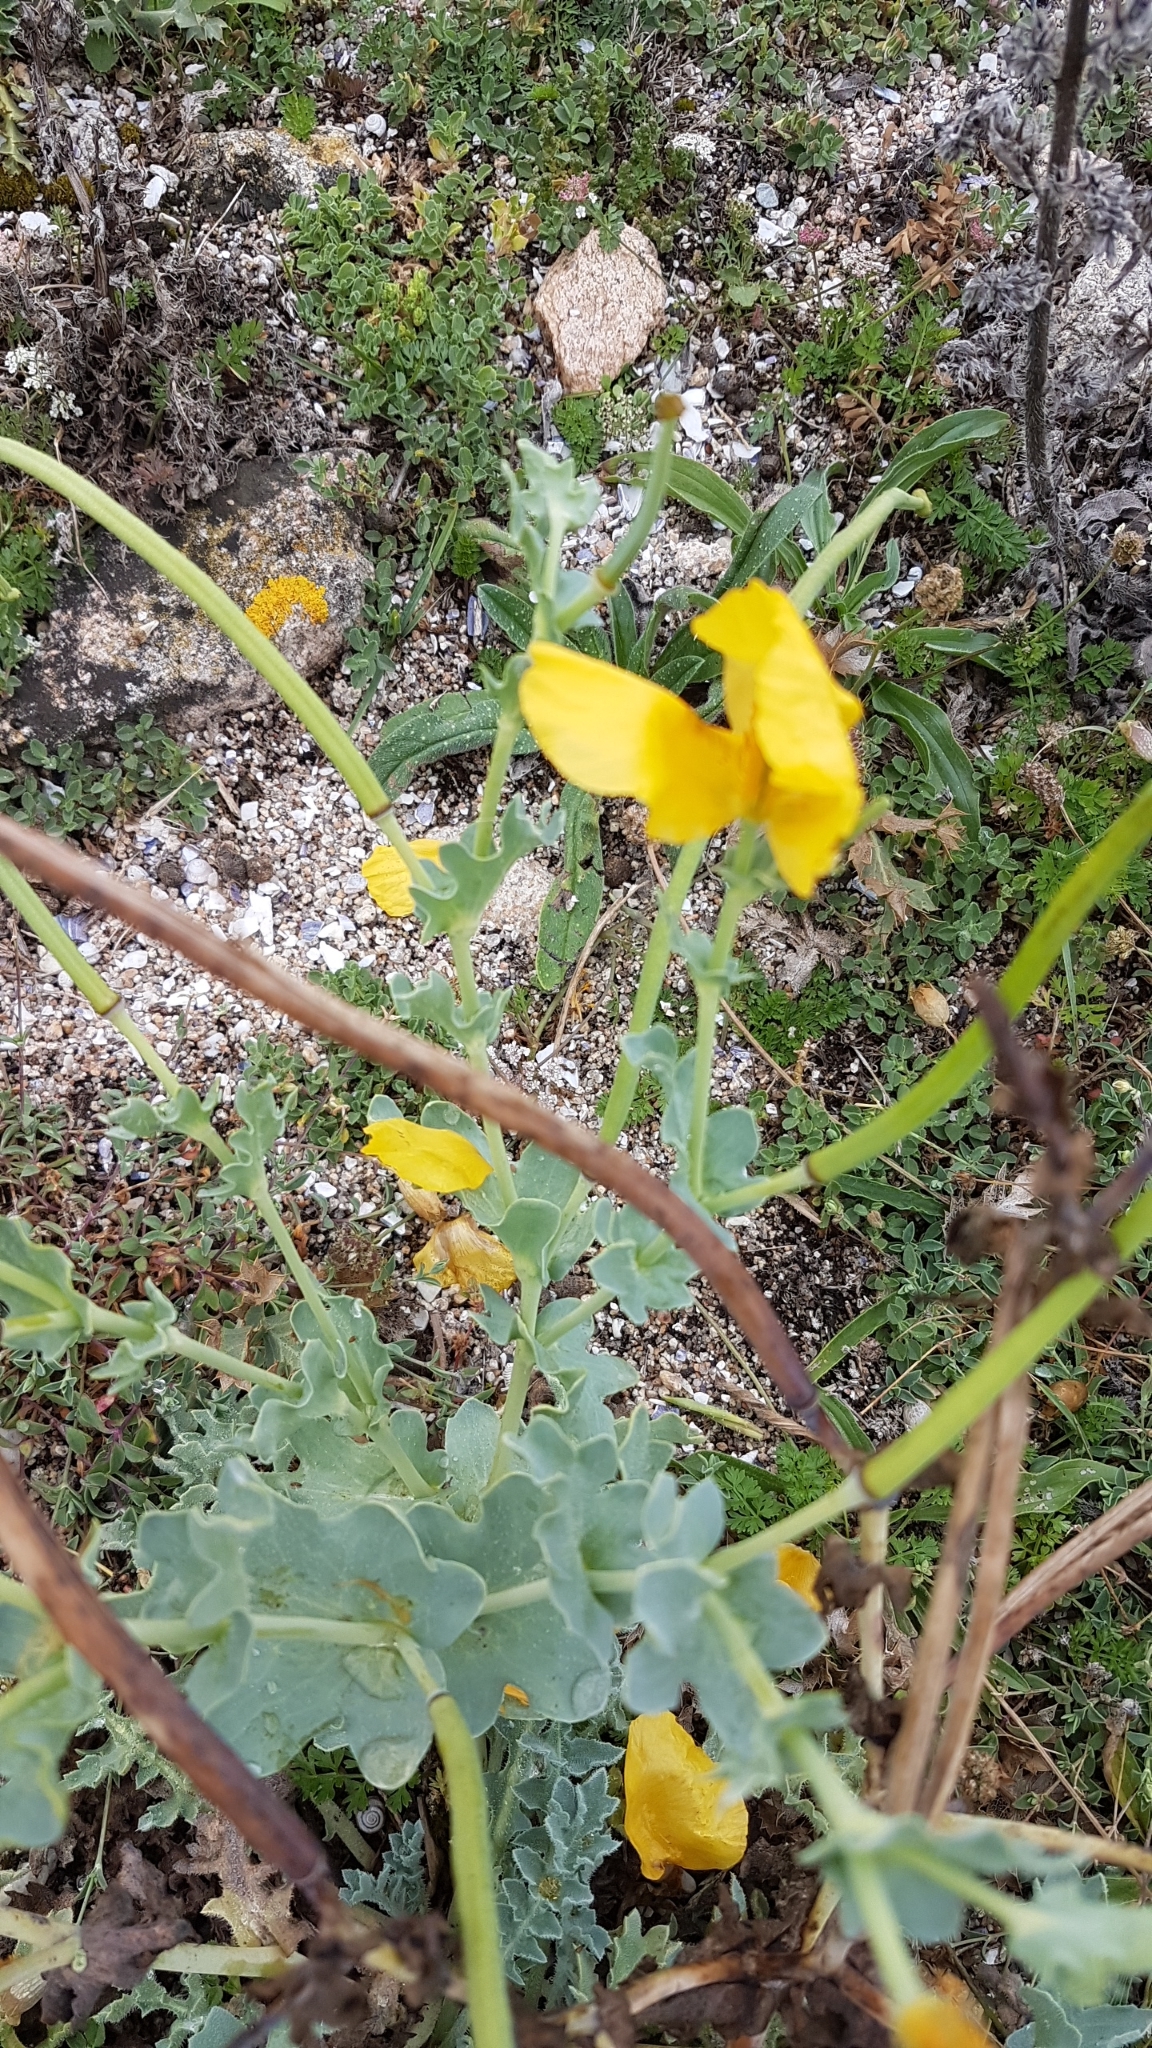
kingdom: Plantae
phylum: Tracheophyta
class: Magnoliopsida
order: Ranunculales
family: Papaveraceae
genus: Glaucium
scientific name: Glaucium flavum
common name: Yellow horned-poppy
